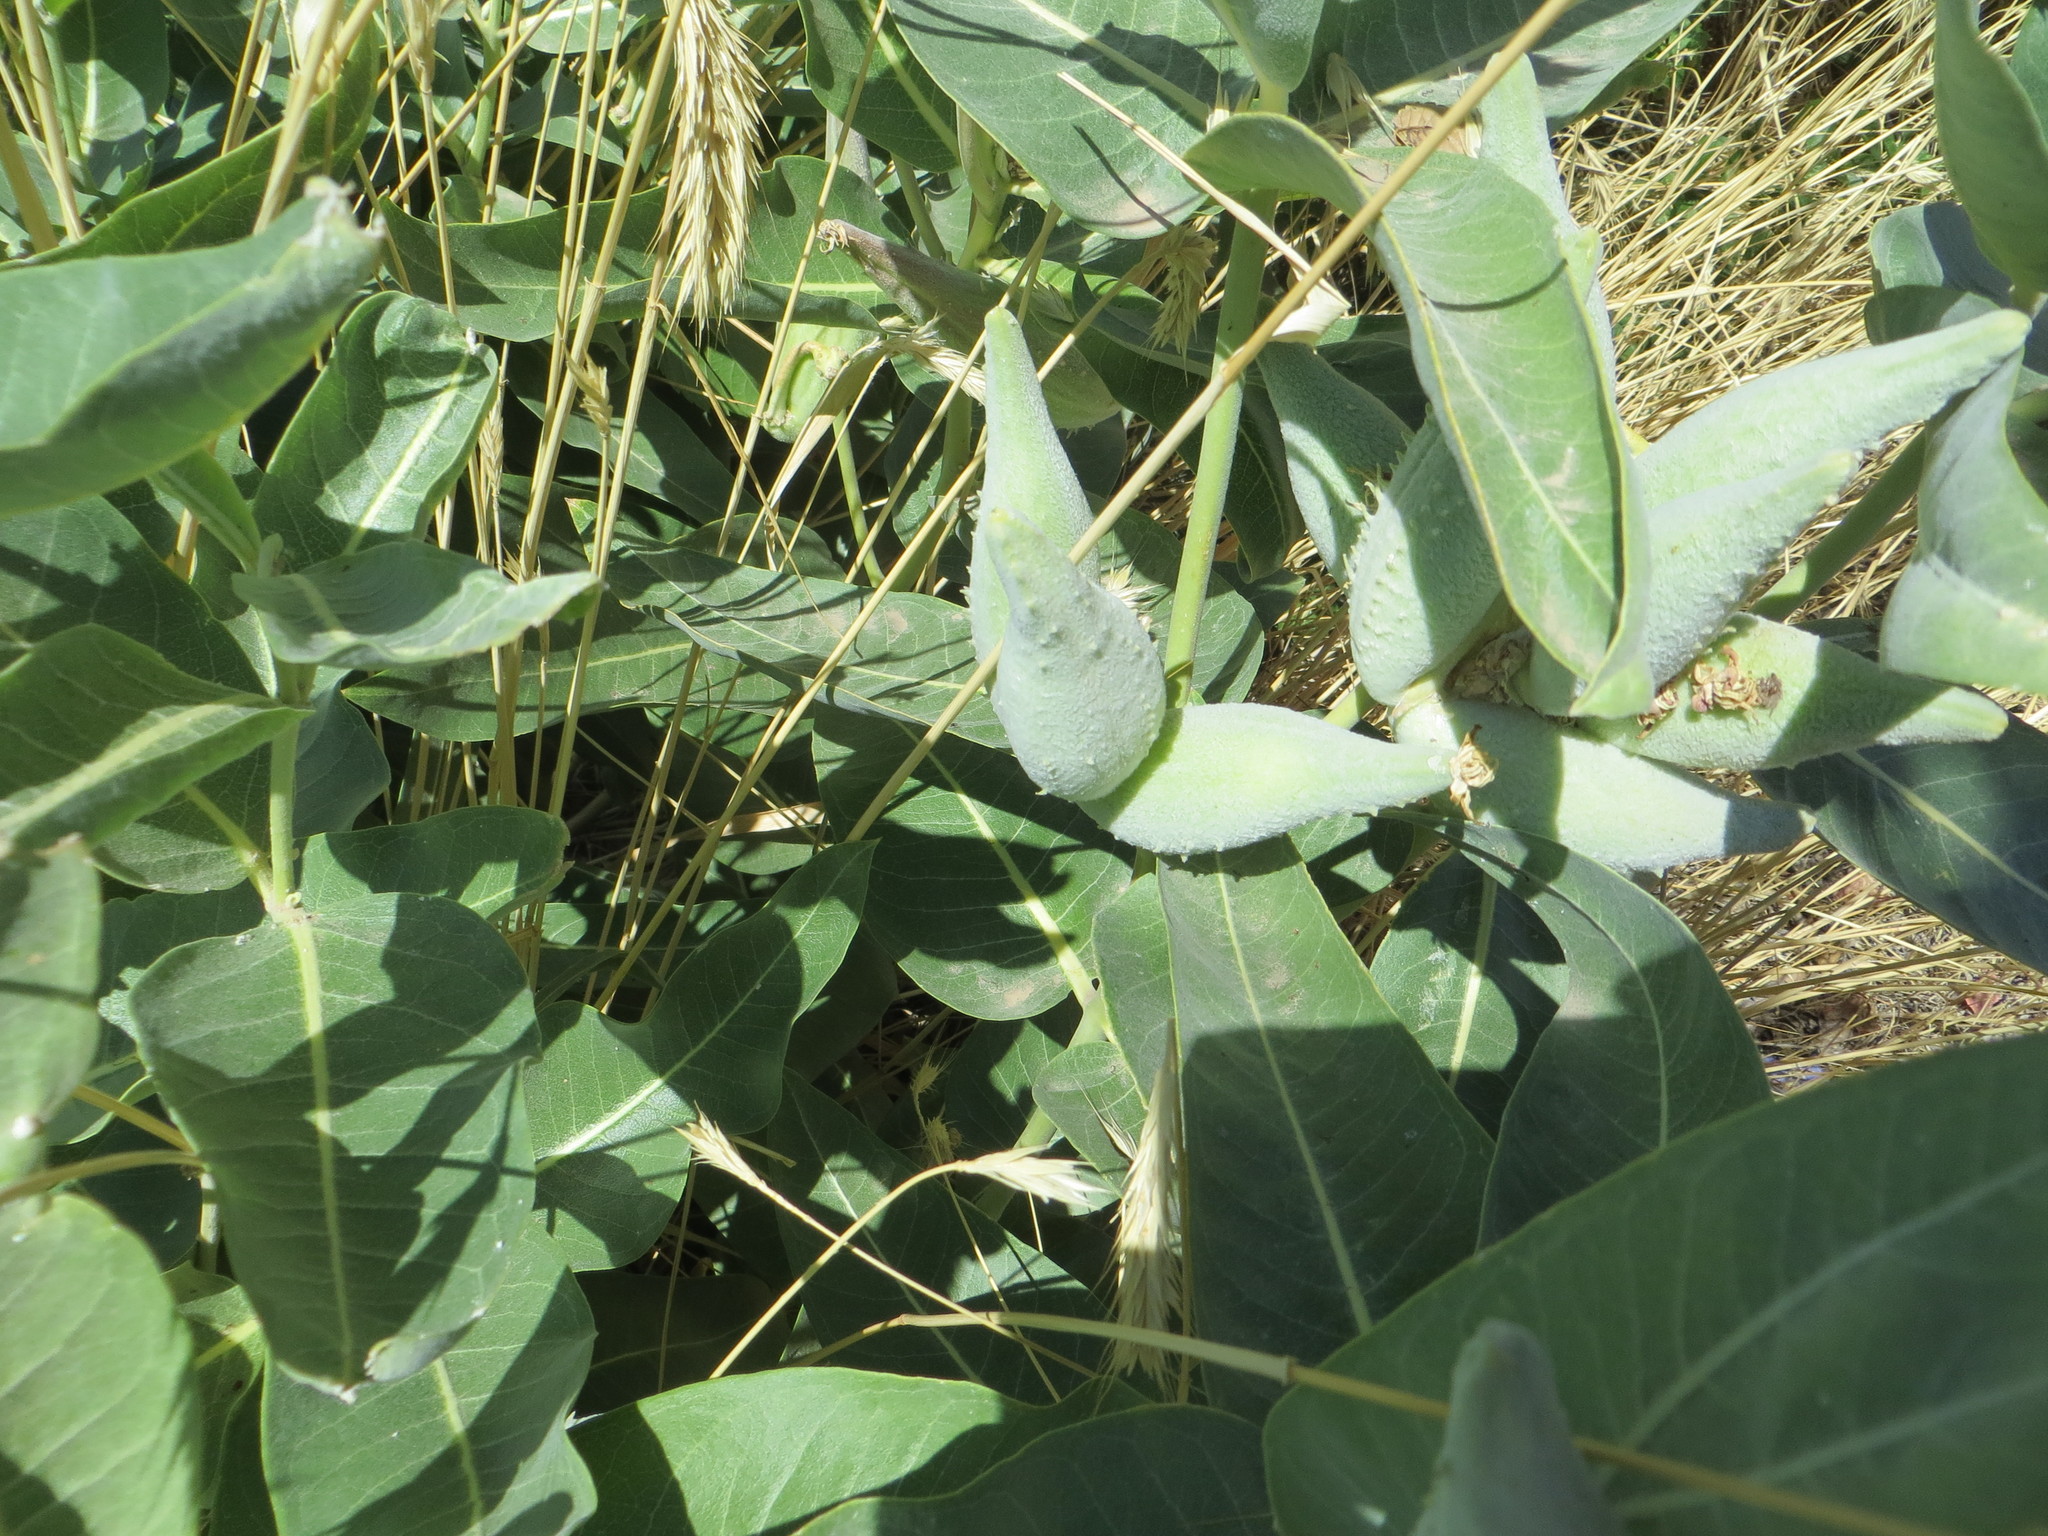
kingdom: Plantae
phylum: Tracheophyta
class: Magnoliopsida
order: Gentianales
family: Apocynaceae
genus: Asclepias
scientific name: Asclepias speciosa
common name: Showy milkweed
